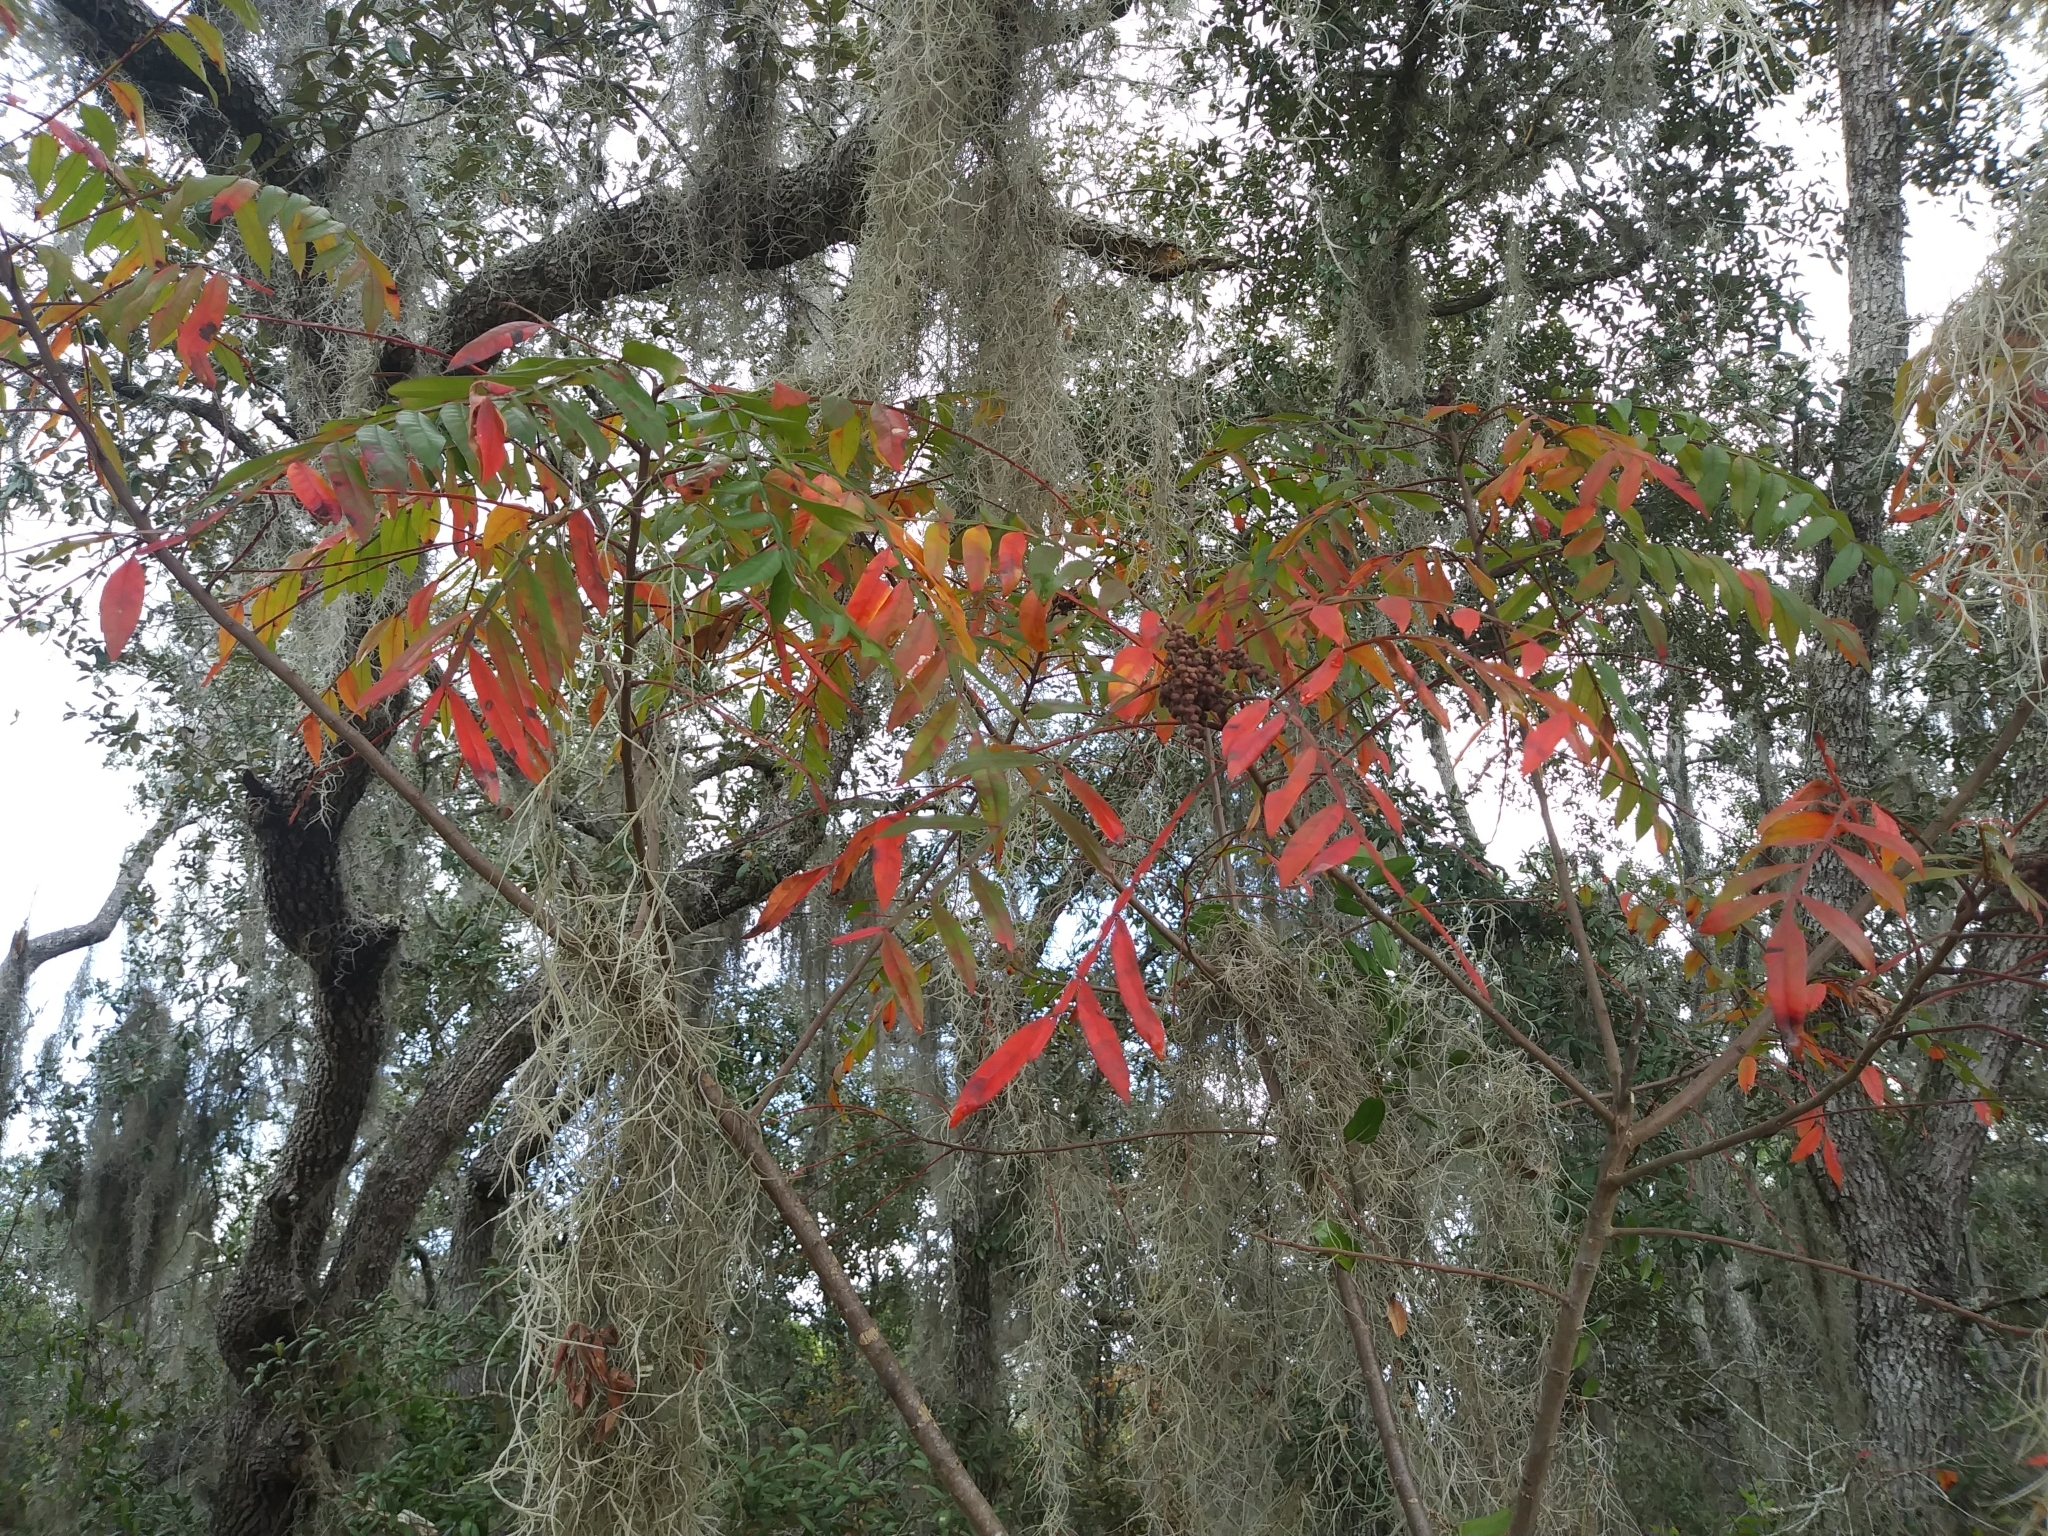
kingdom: Plantae
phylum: Tracheophyta
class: Magnoliopsida
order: Sapindales
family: Anacardiaceae
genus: Rhus
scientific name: Rhus copallina
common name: Shining sumac
